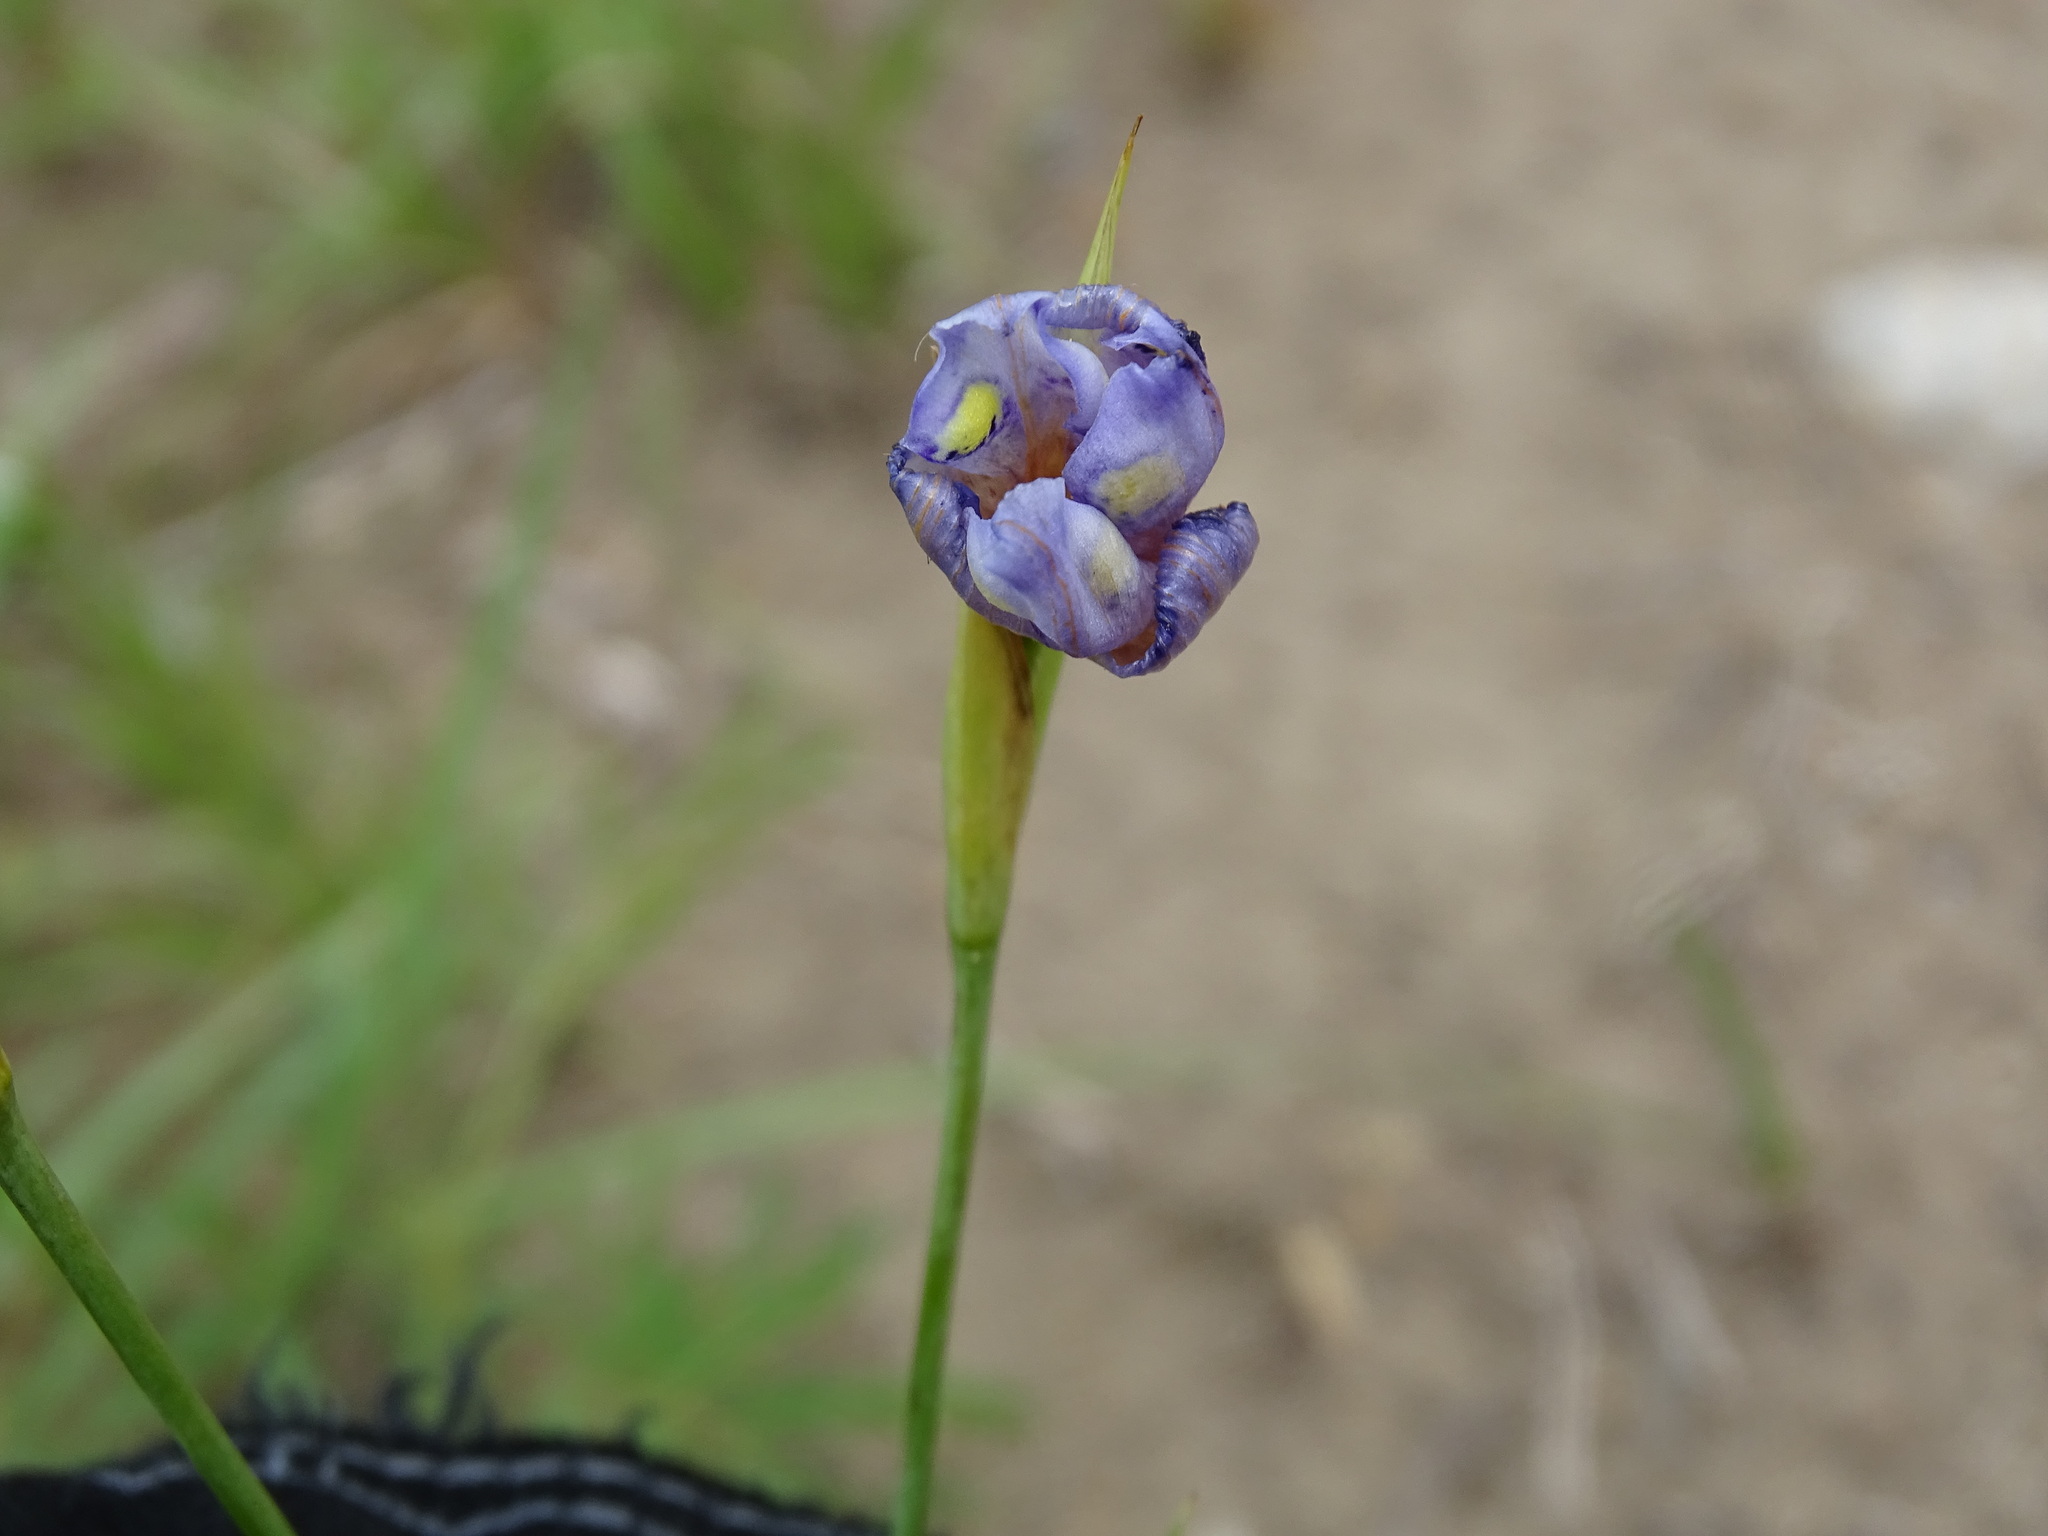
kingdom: Plantae
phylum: Tracheophyta
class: Liliopsida
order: Asparagales
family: Iridaceae
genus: Alophia
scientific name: Alophia drummondii
